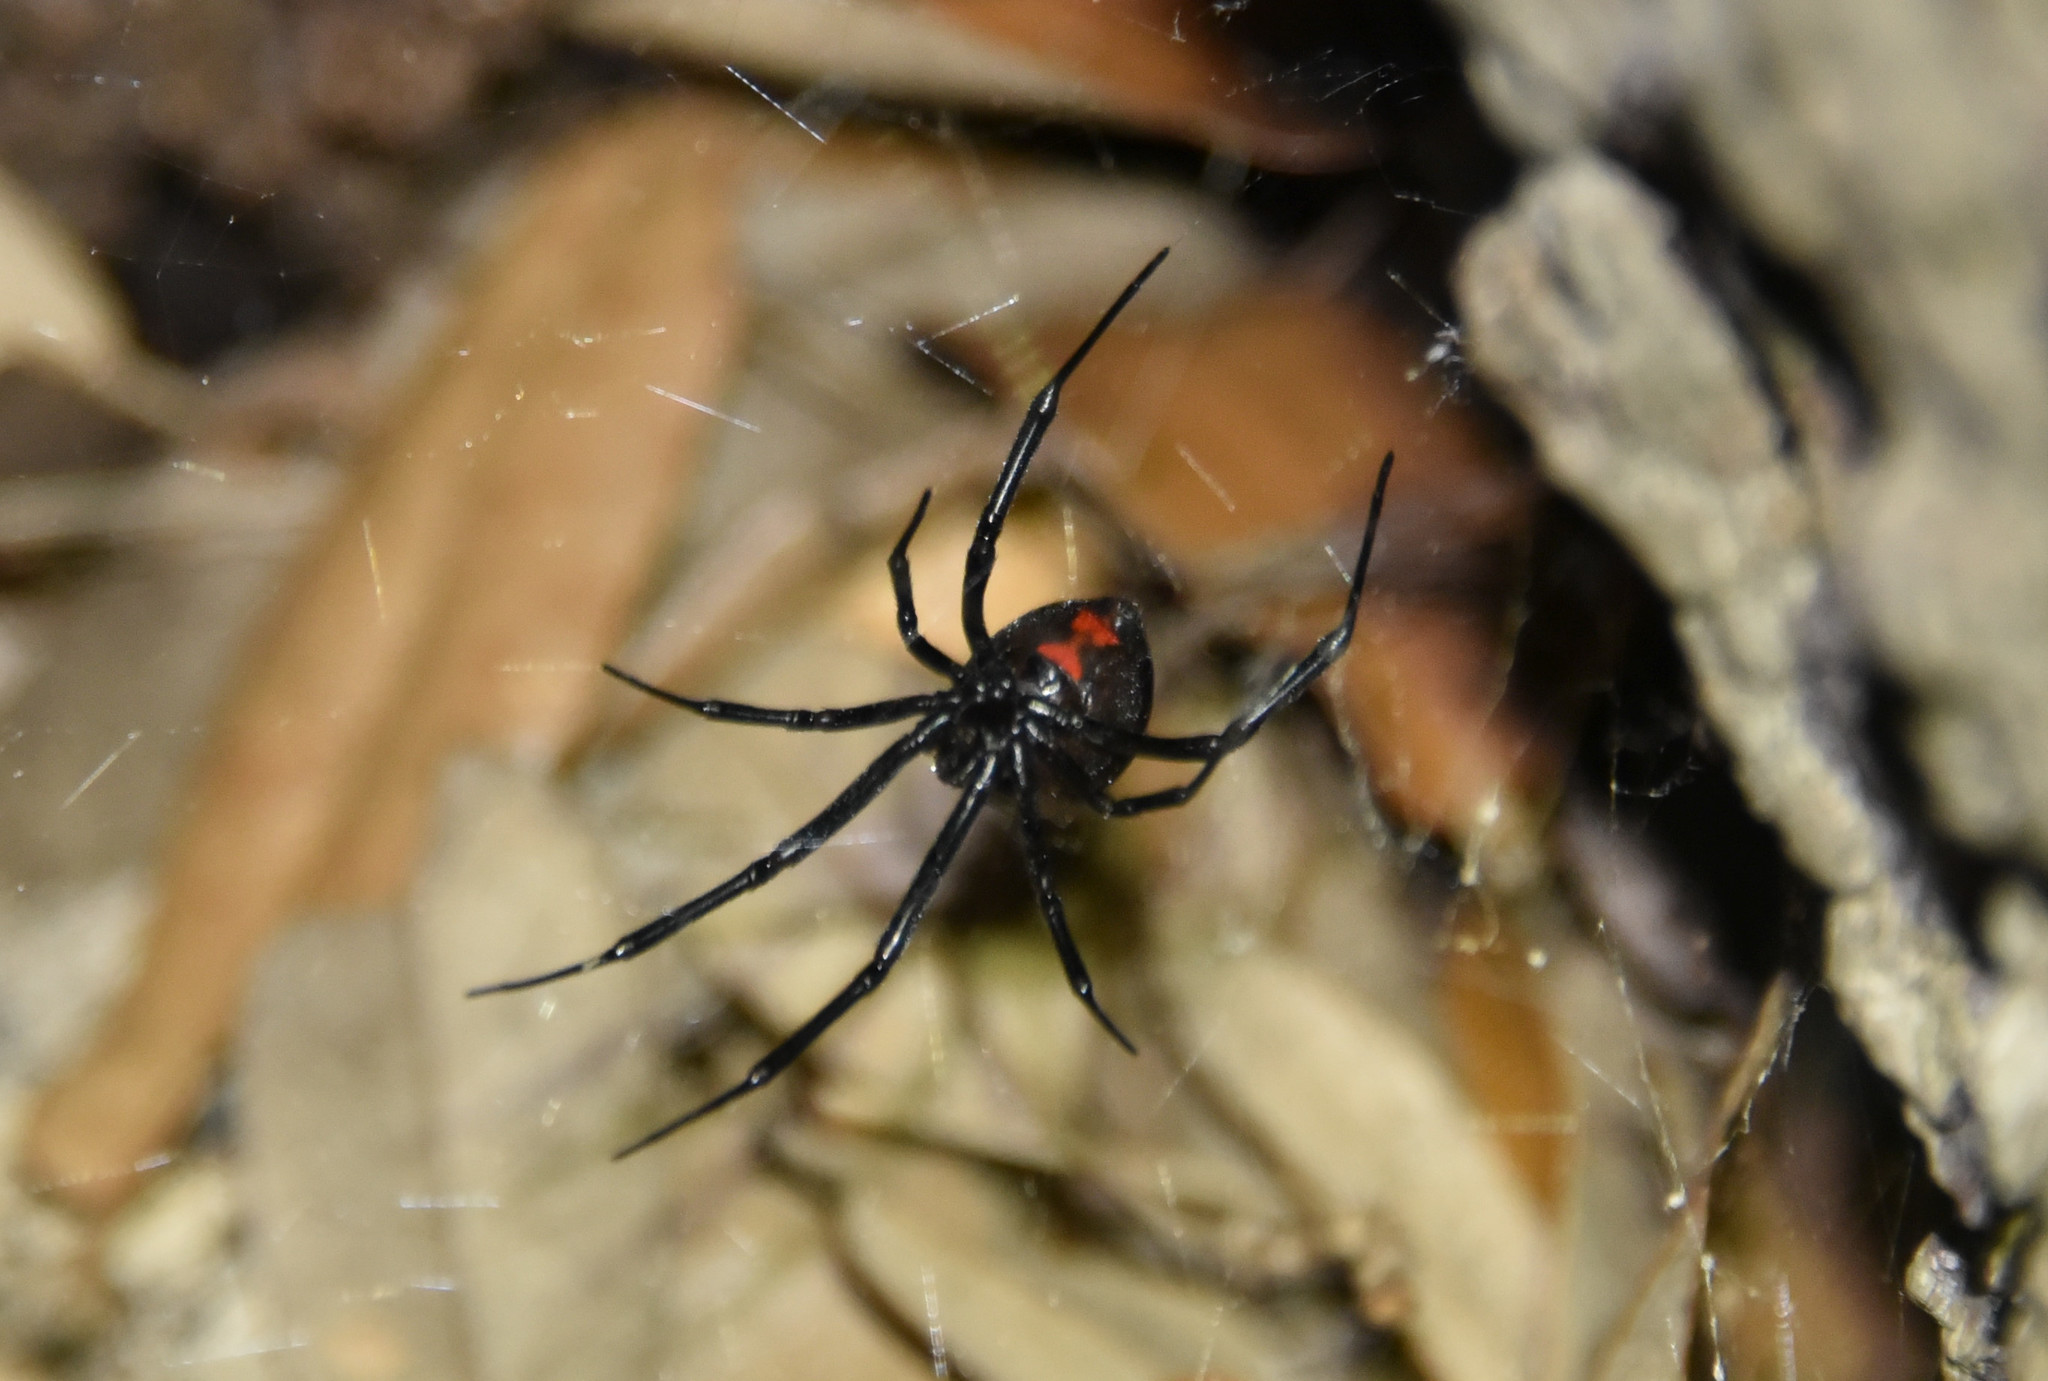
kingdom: Animalia
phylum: Arthropoda
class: Arachnida
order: Araneae
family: Theridiidae
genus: Latrodectus
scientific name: Latrodectus hesperus
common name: Western black widow
